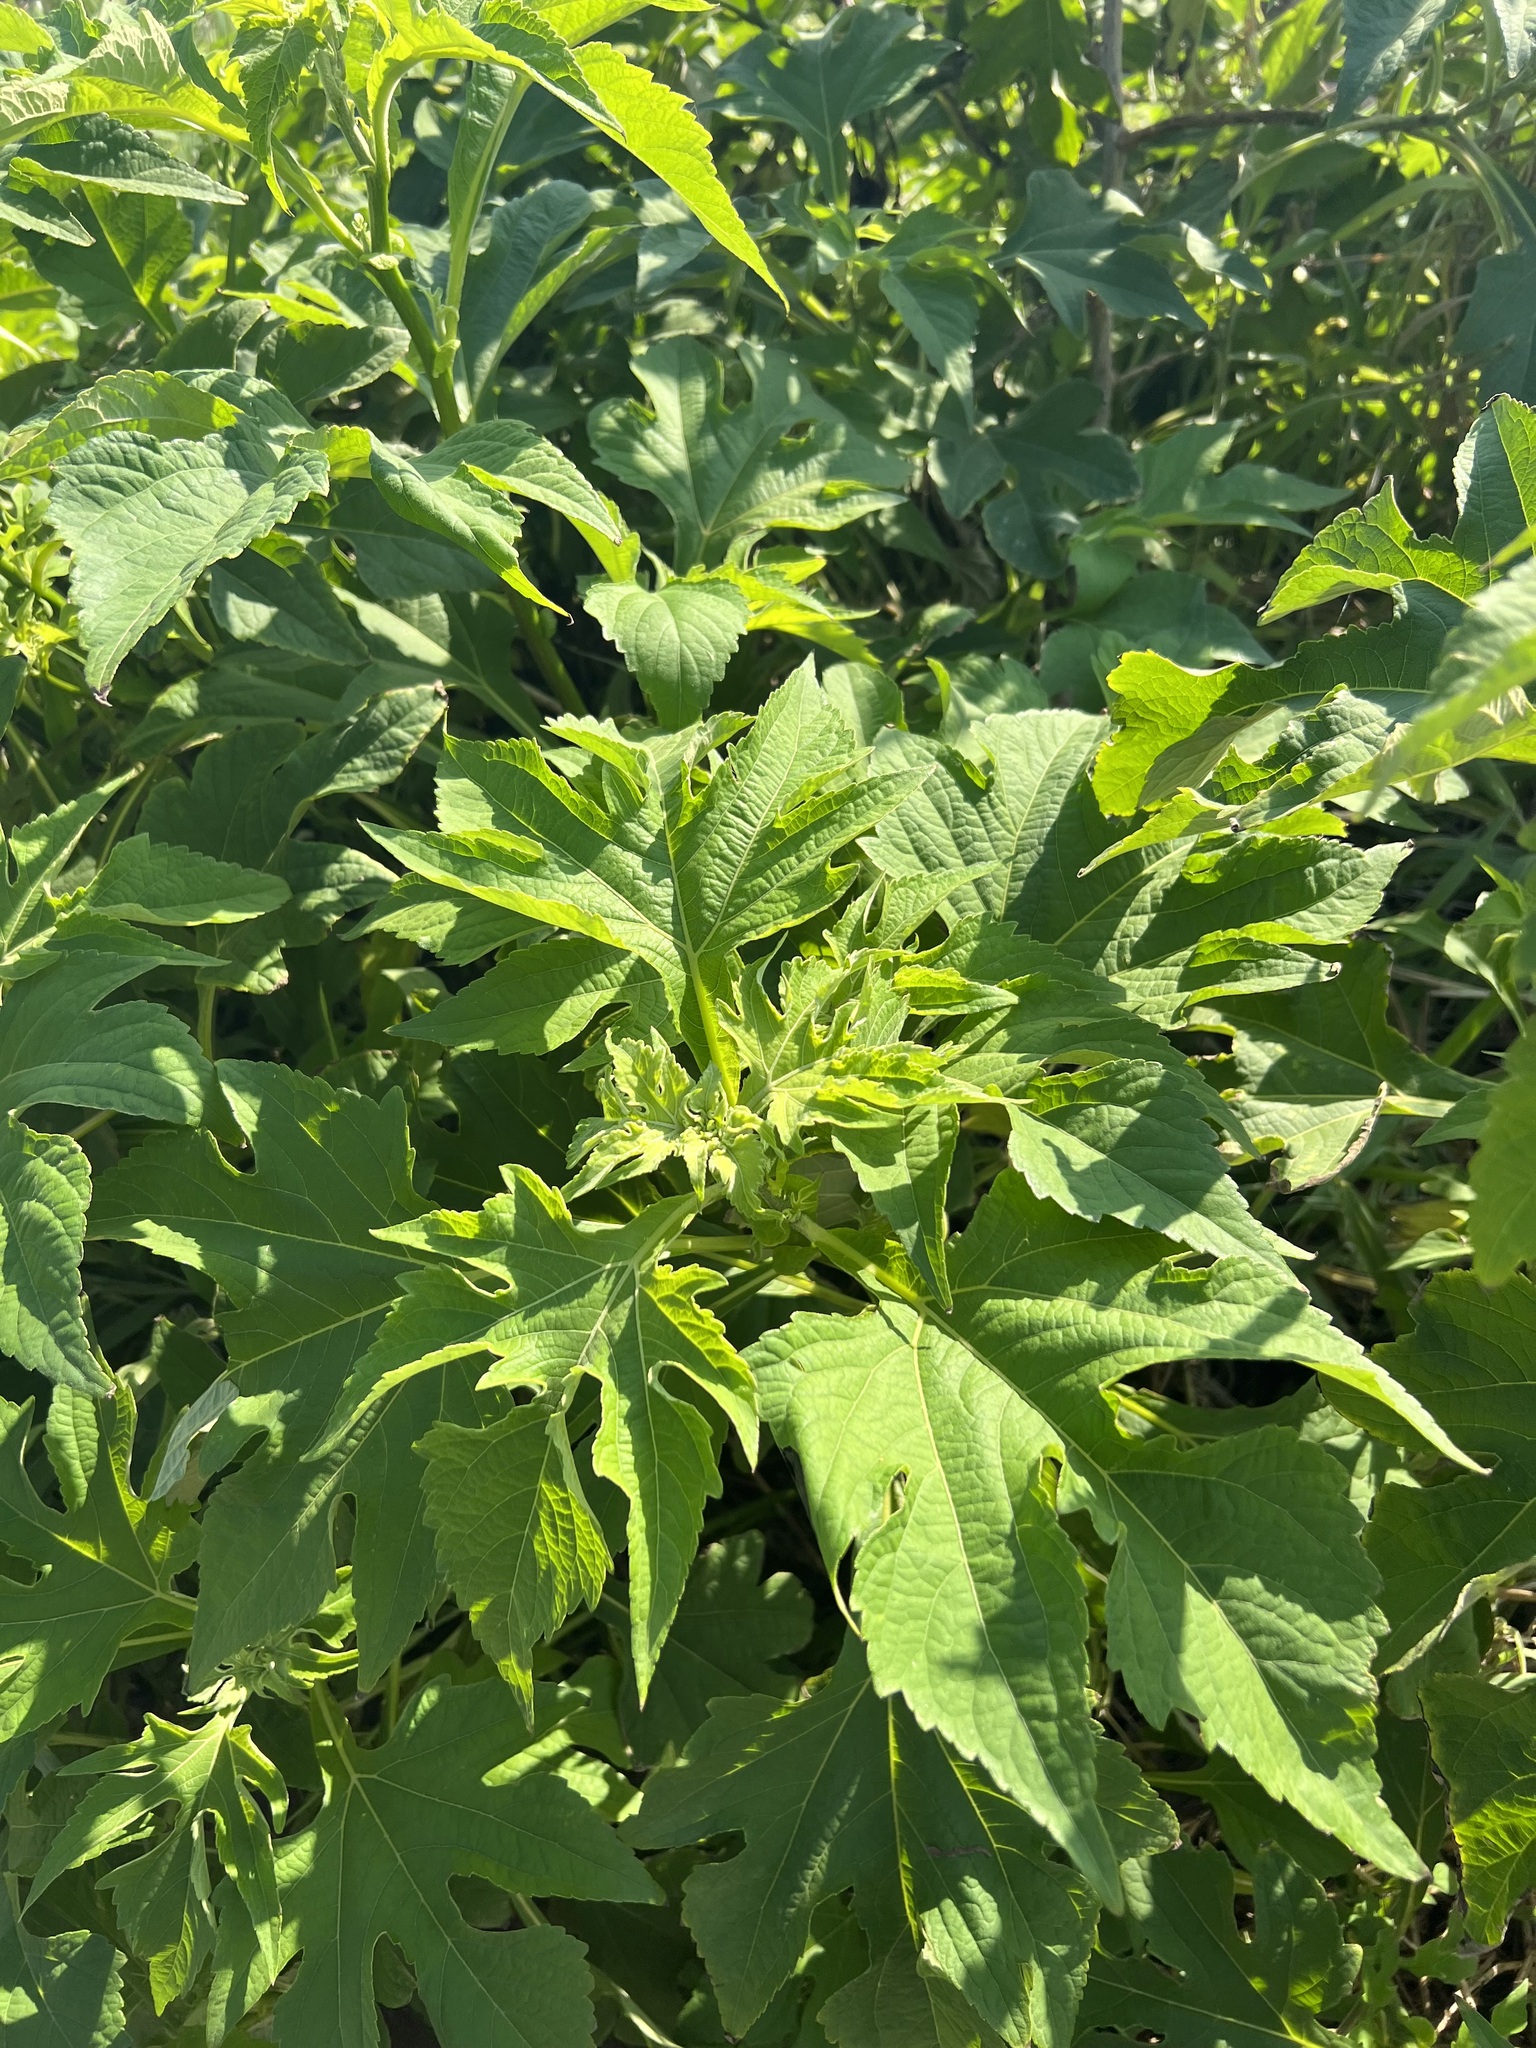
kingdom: Plantae
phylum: Tracheophyta
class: Magnoliopsida
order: Asterales
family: Asteraceae
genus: Tithonia
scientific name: Tithonia diversifolia
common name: Tree marigold
